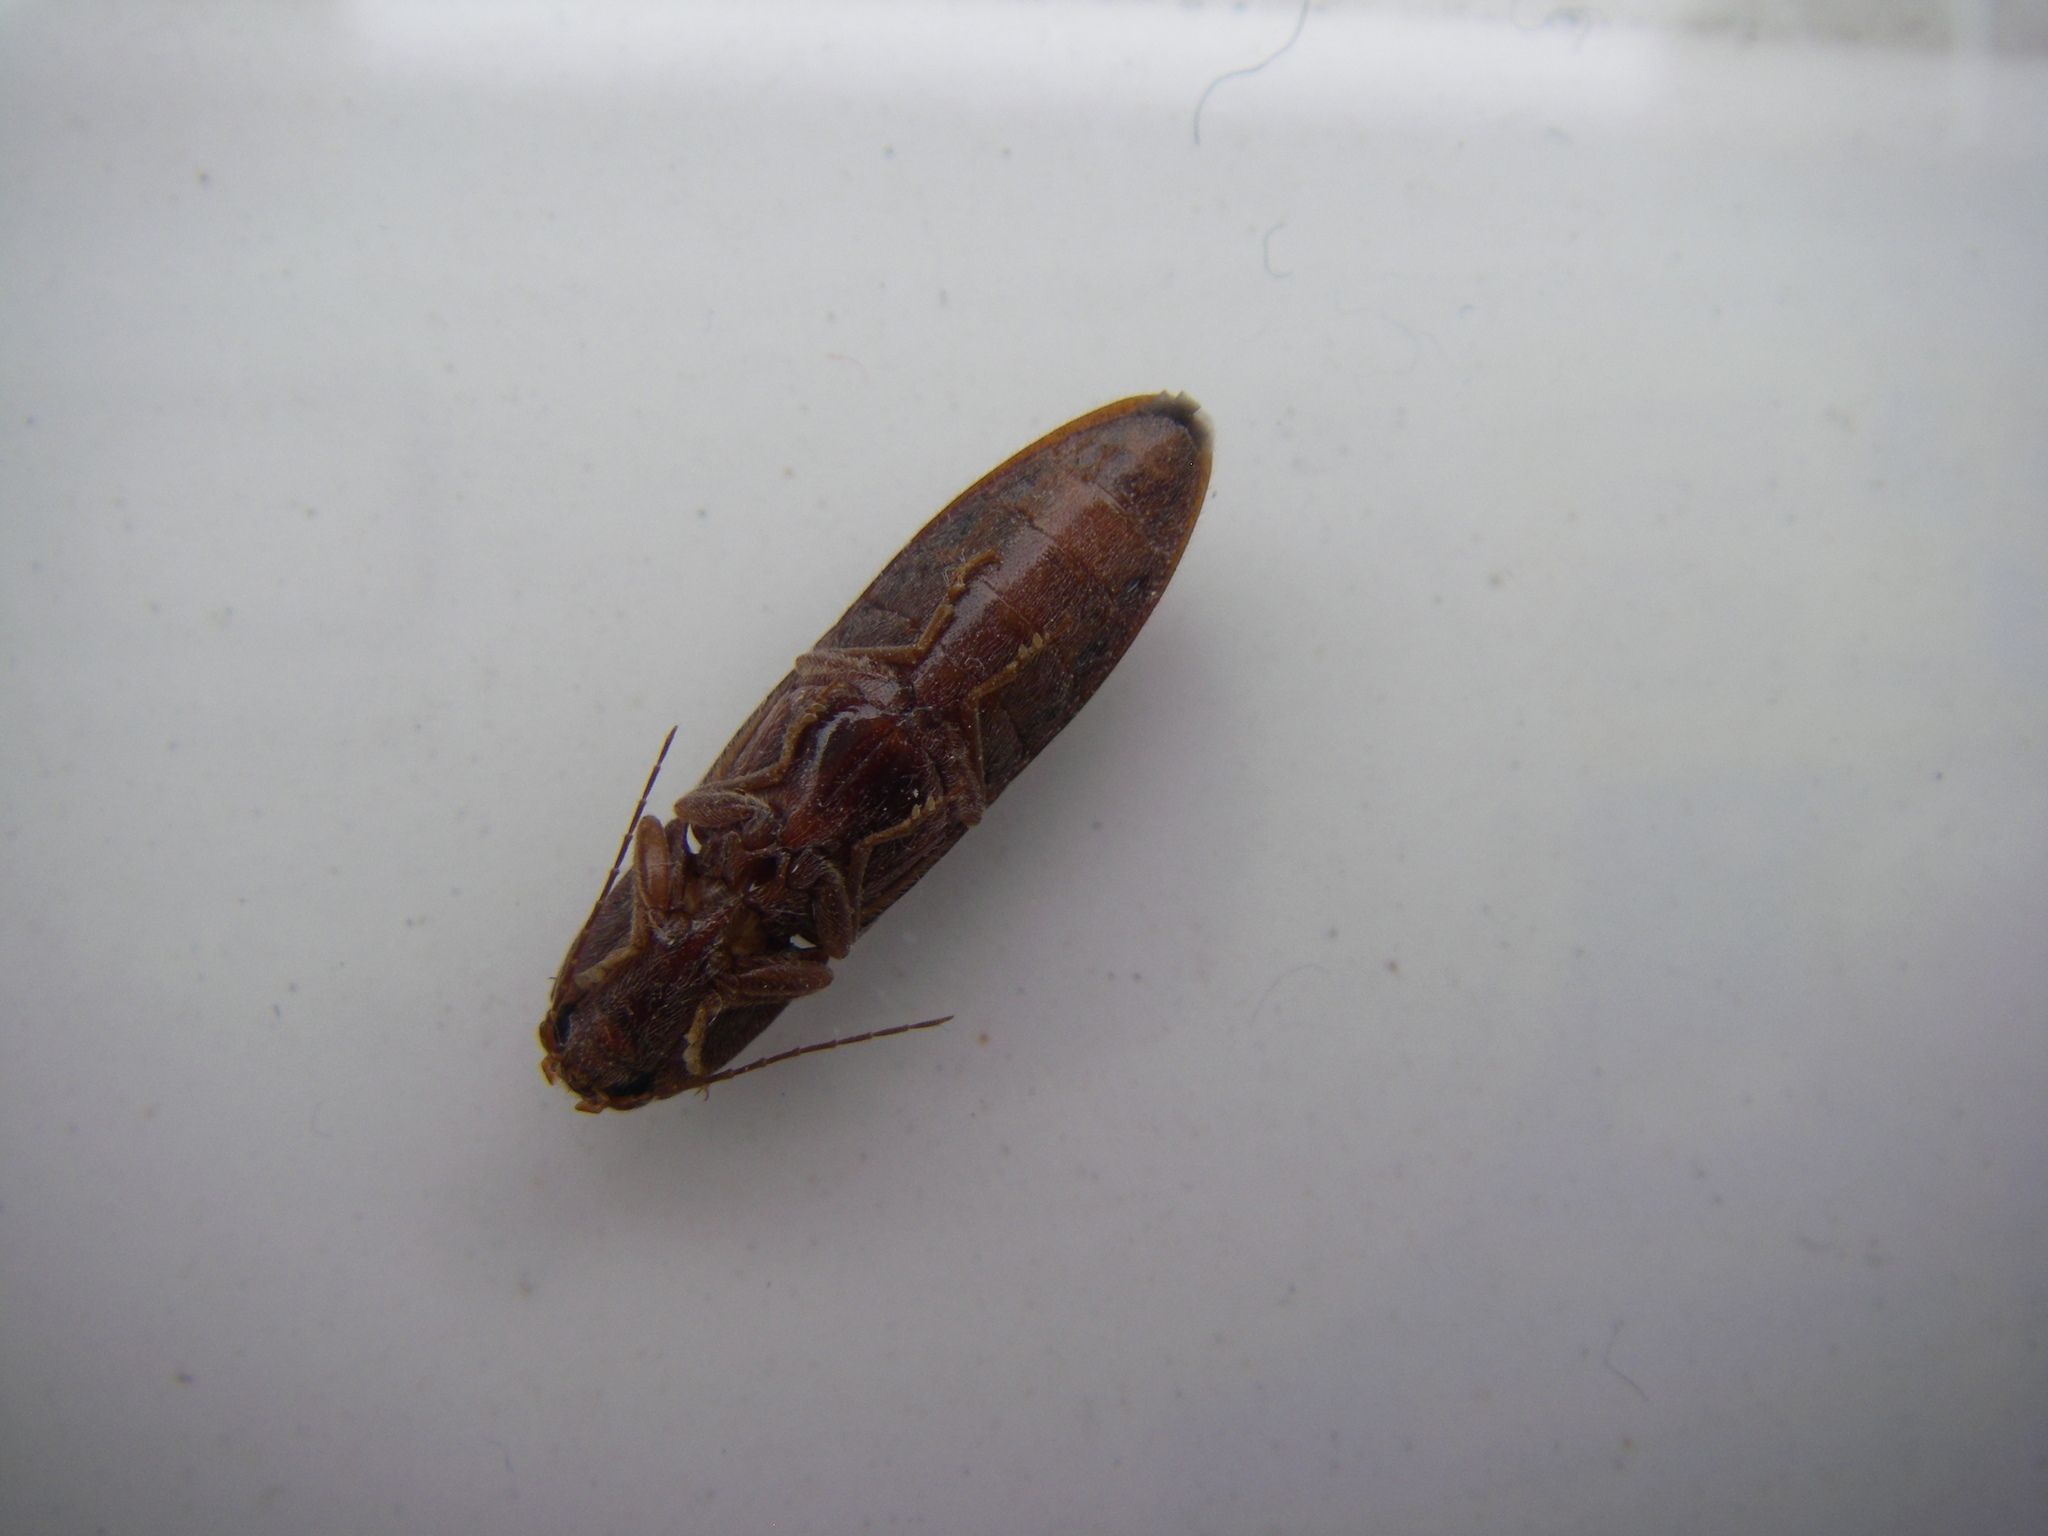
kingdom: Animalia
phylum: Arthropoda
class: Insecta
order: Coleoptera
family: Elateridae
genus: Stenagostus
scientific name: Stenagostus rhombeus
